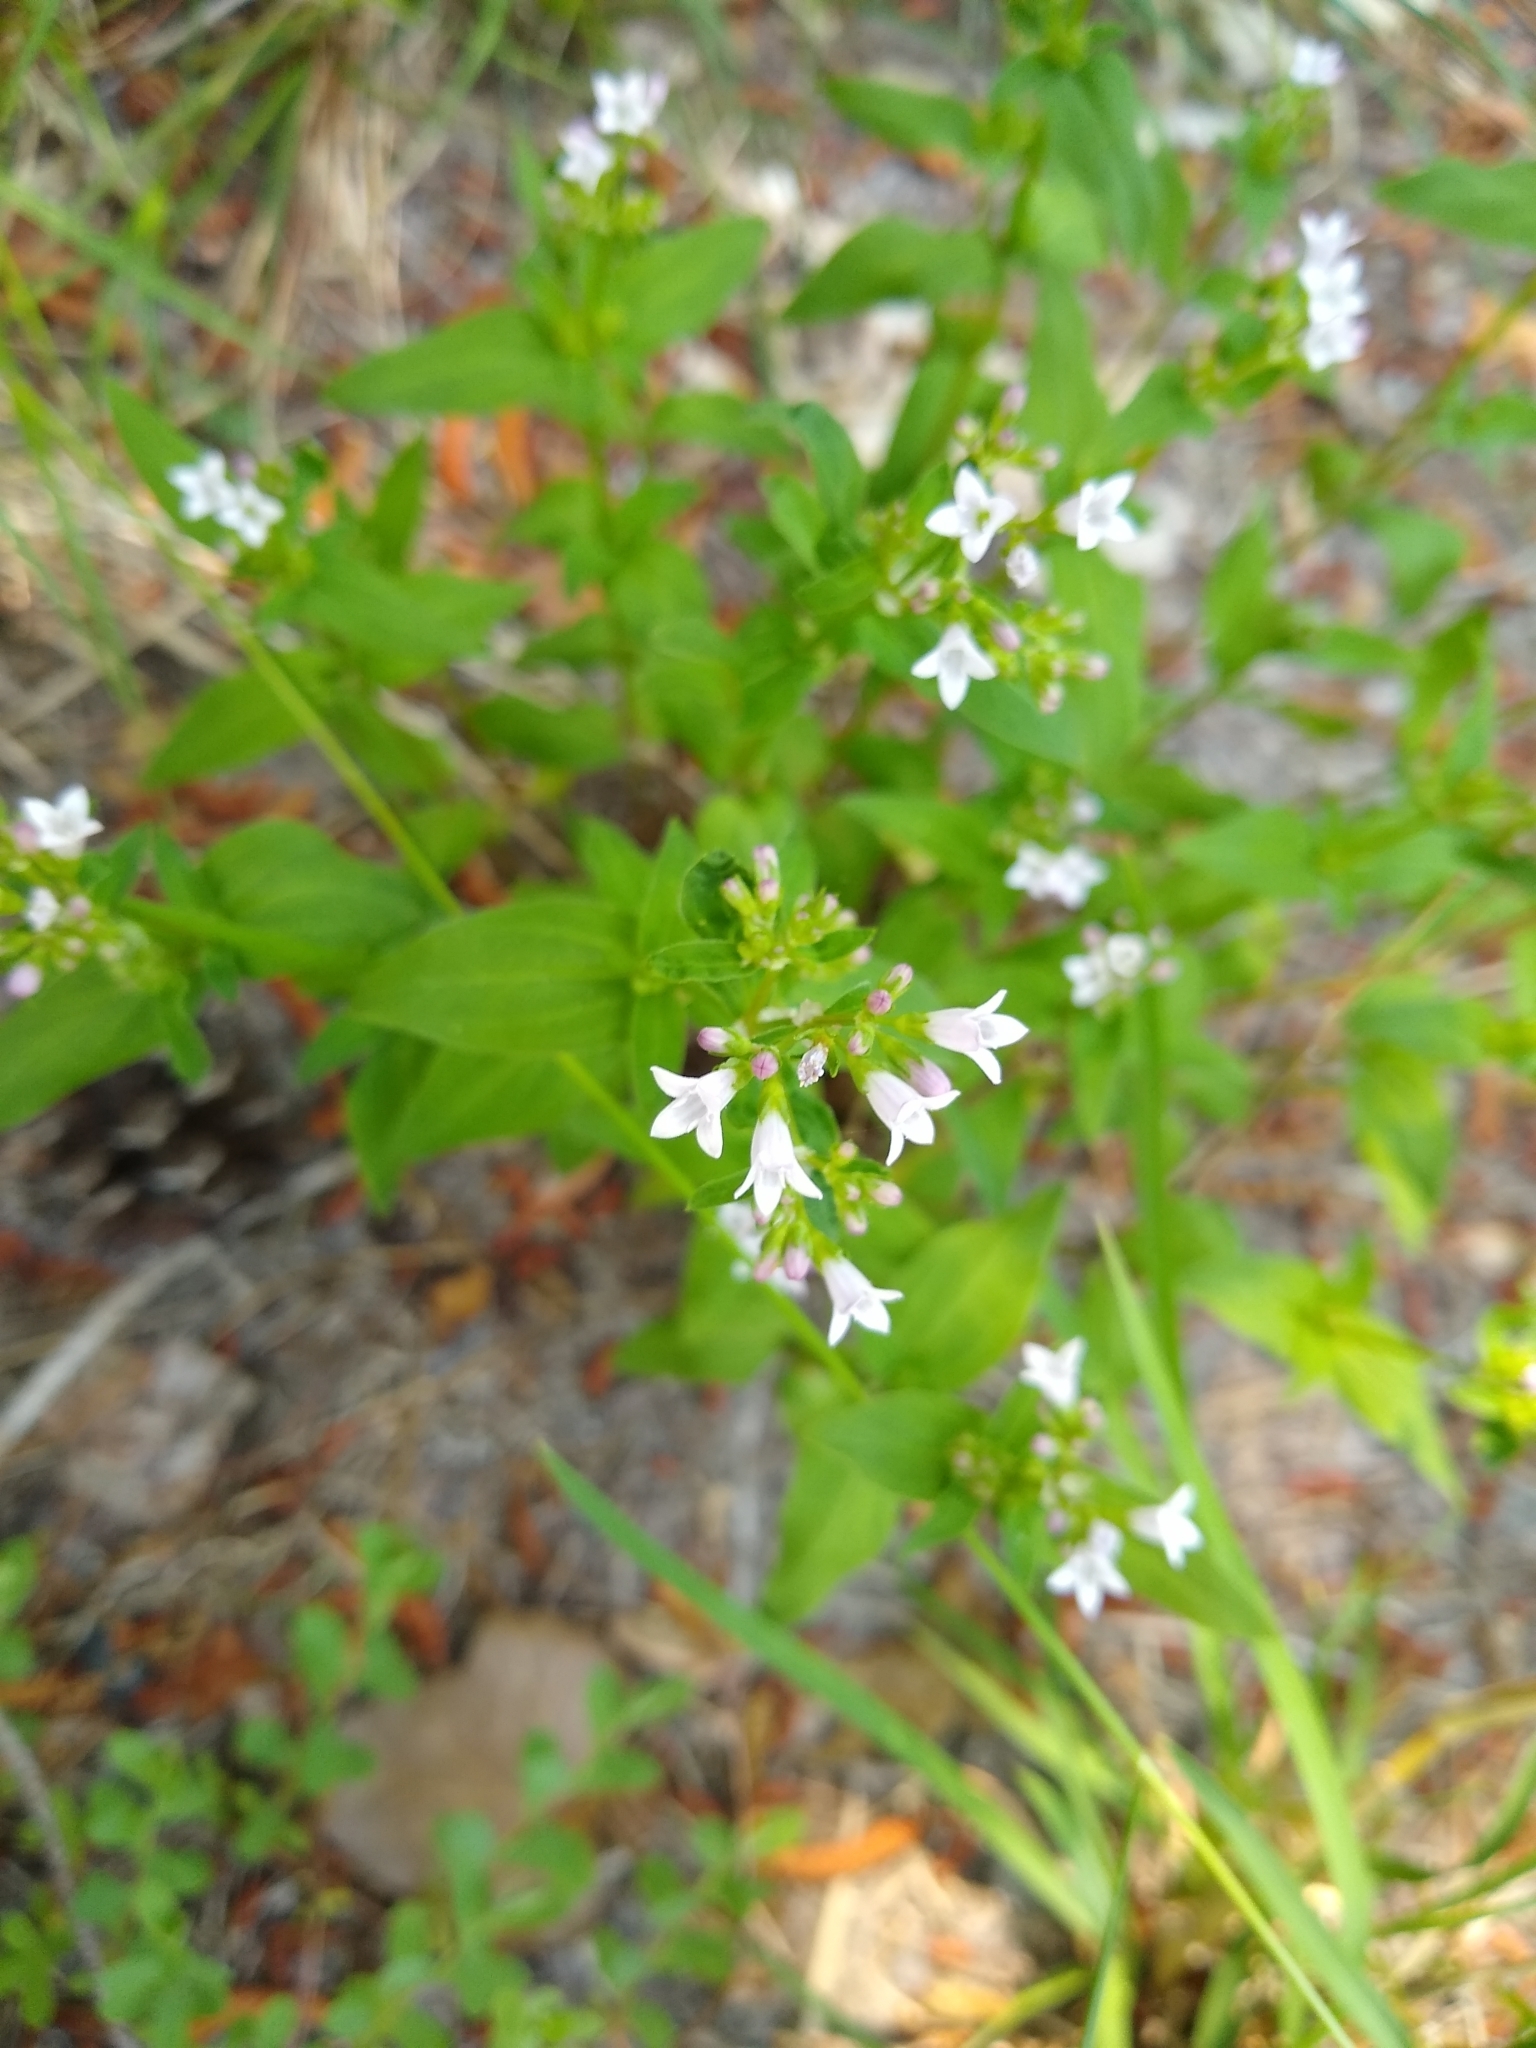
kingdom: Plantae
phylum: Tracheophyta
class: Magnoliopsida
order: Gentianales
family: Rubiaceae
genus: Houstonia
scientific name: Houstonia purpurea
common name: Summer bluet
